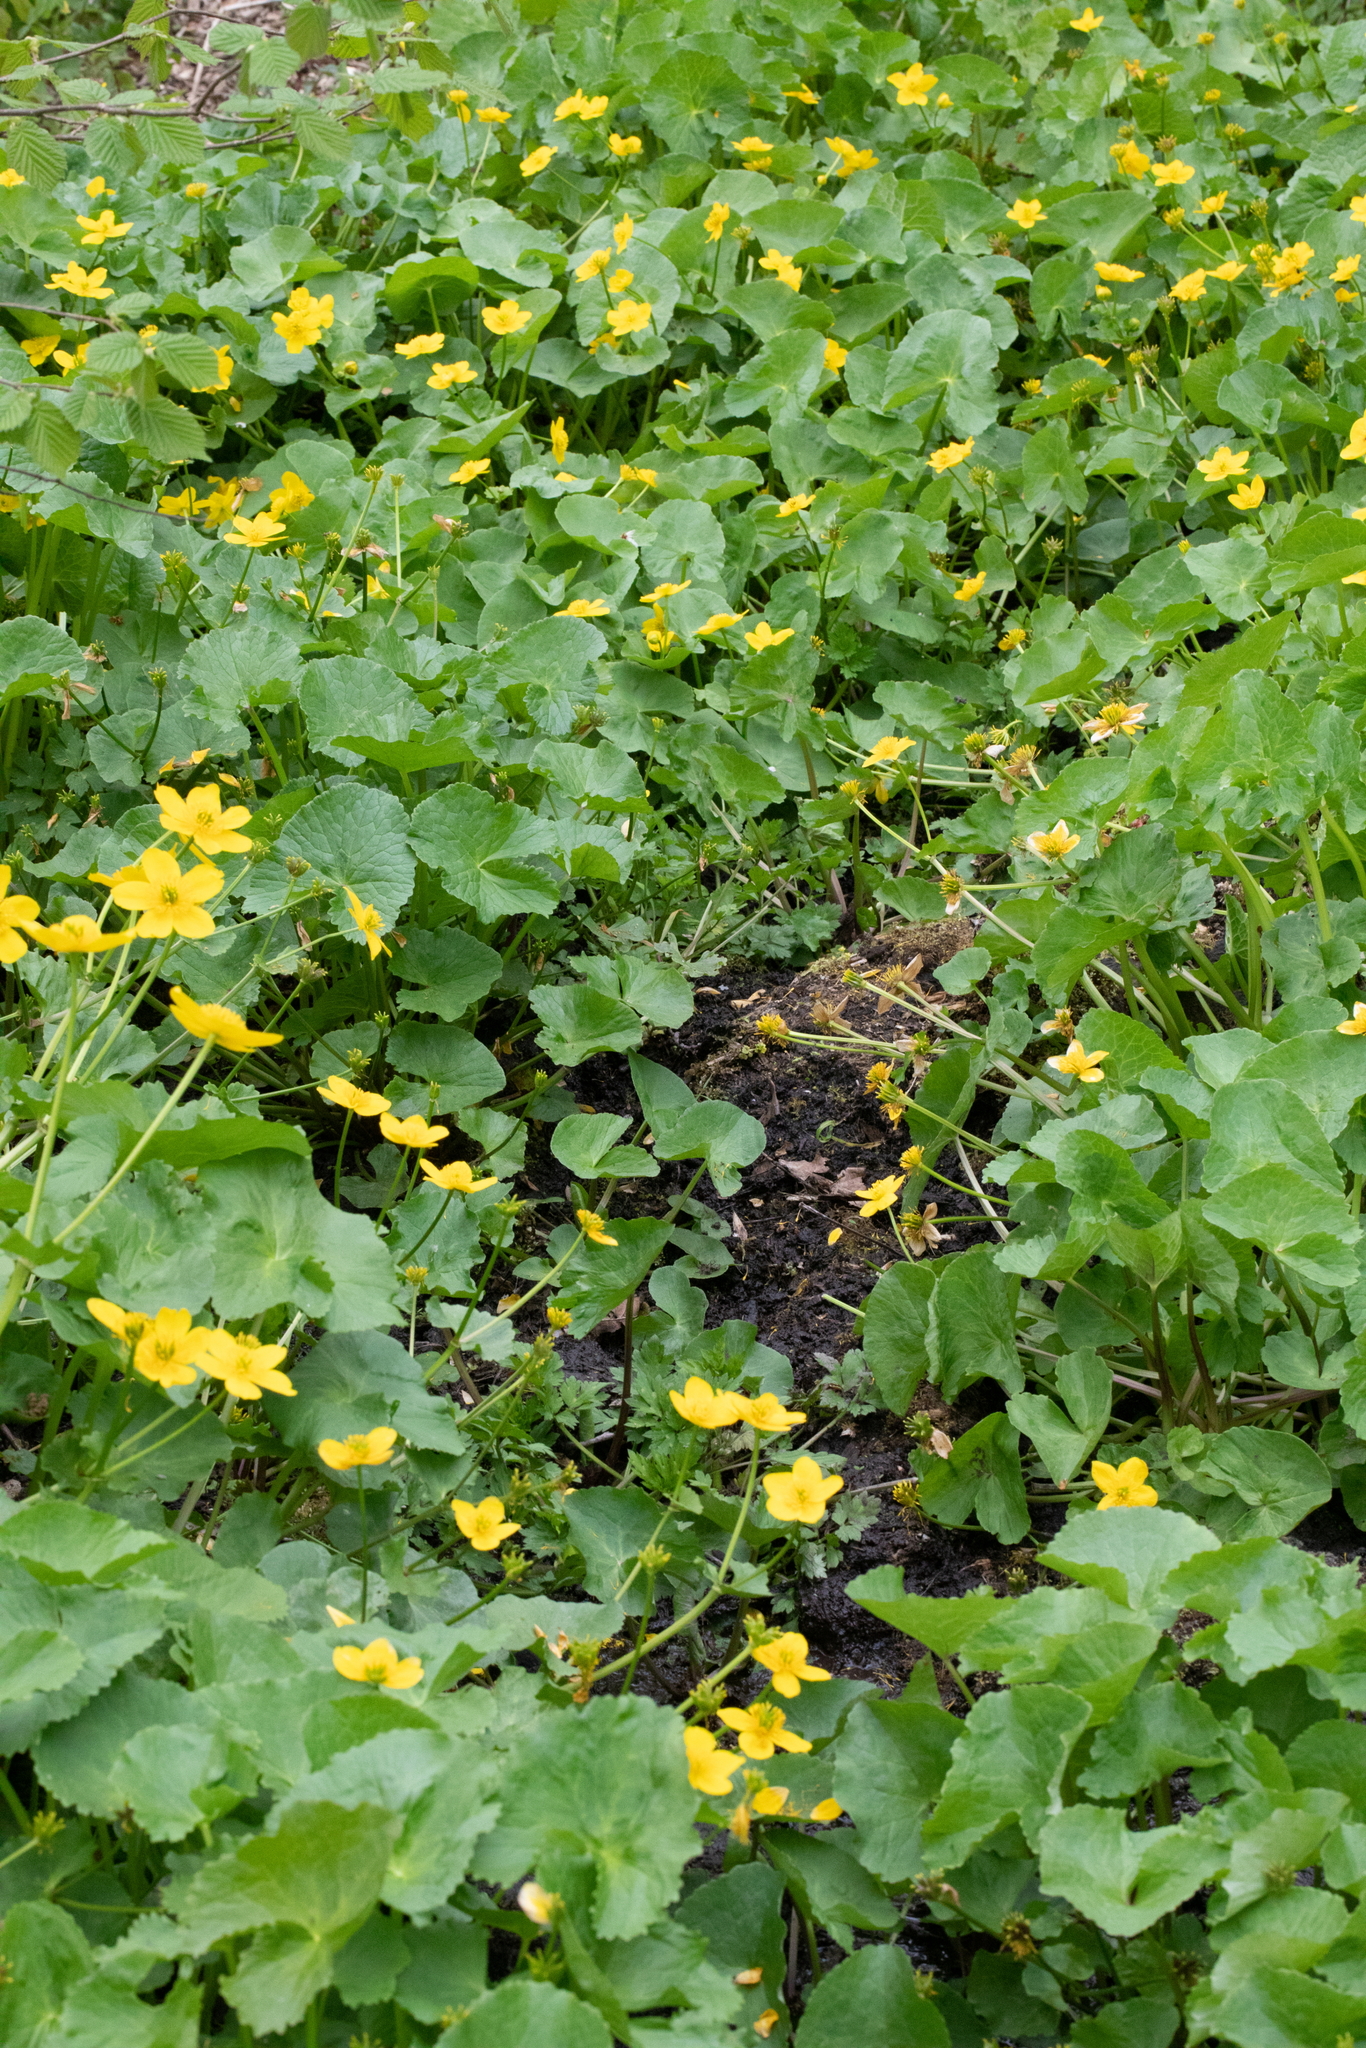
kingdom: Plantae
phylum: Tracheophyta
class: Magnoliopsida
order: Ranunculales
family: Ranunculaceae
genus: Caltha
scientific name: Caltha palustris
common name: Marsh marigold
